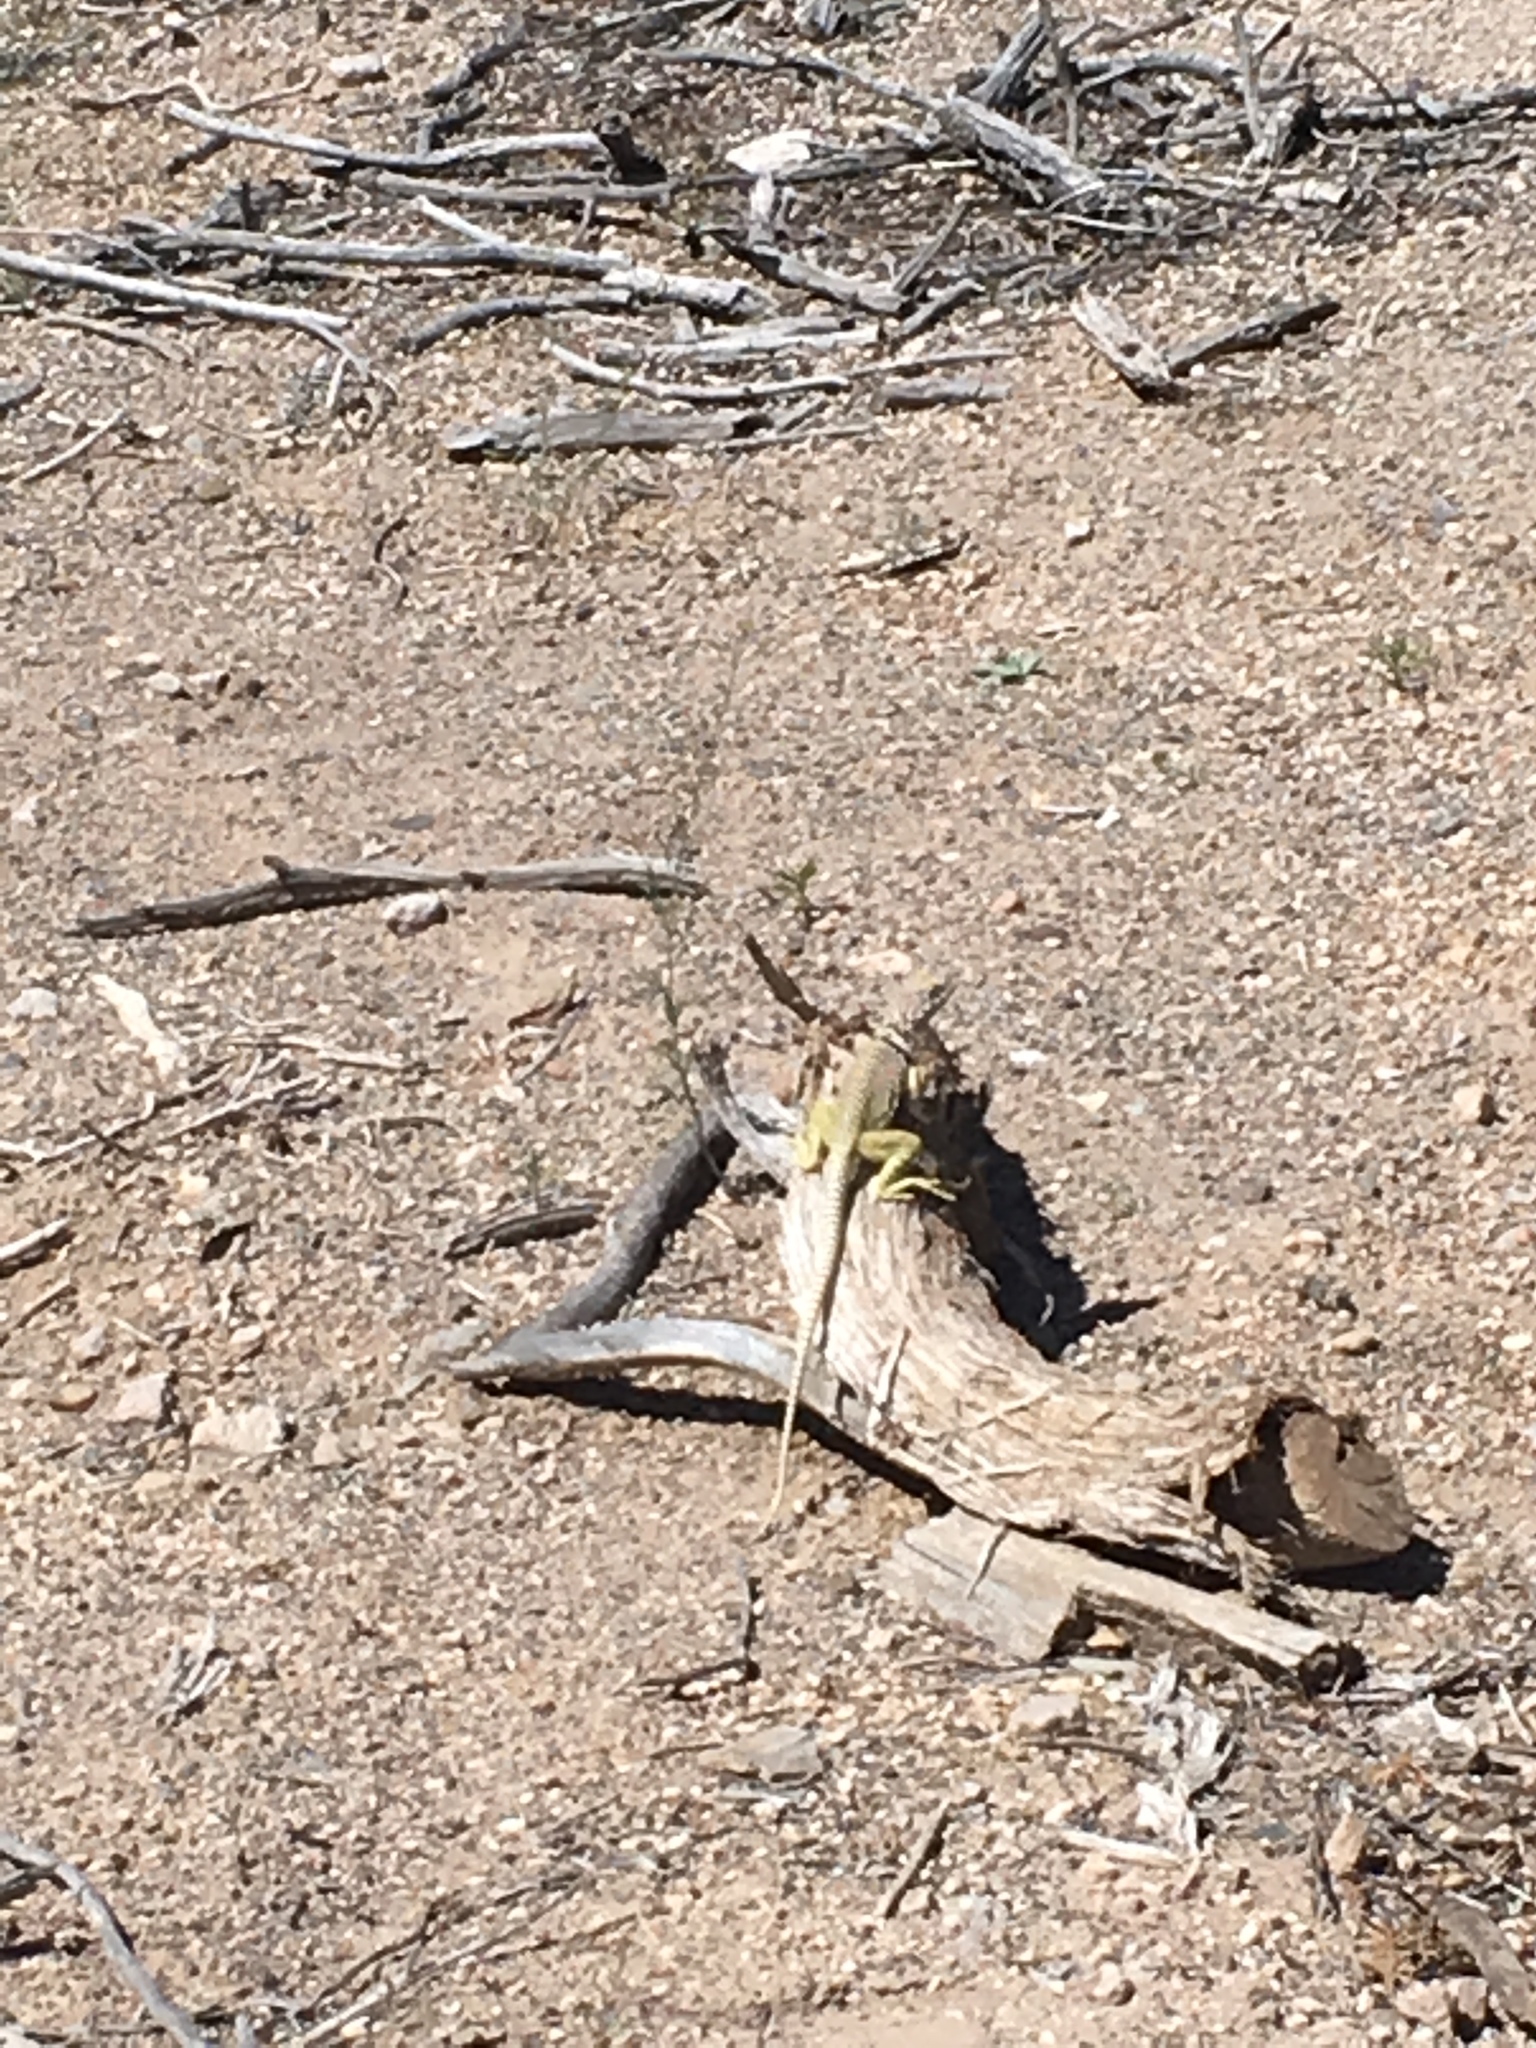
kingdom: Animalia
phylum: Chordata
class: Squamata
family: Crotaphytidae
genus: Crotaphytus
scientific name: Crotaphytus collaris
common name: Collared lizard
